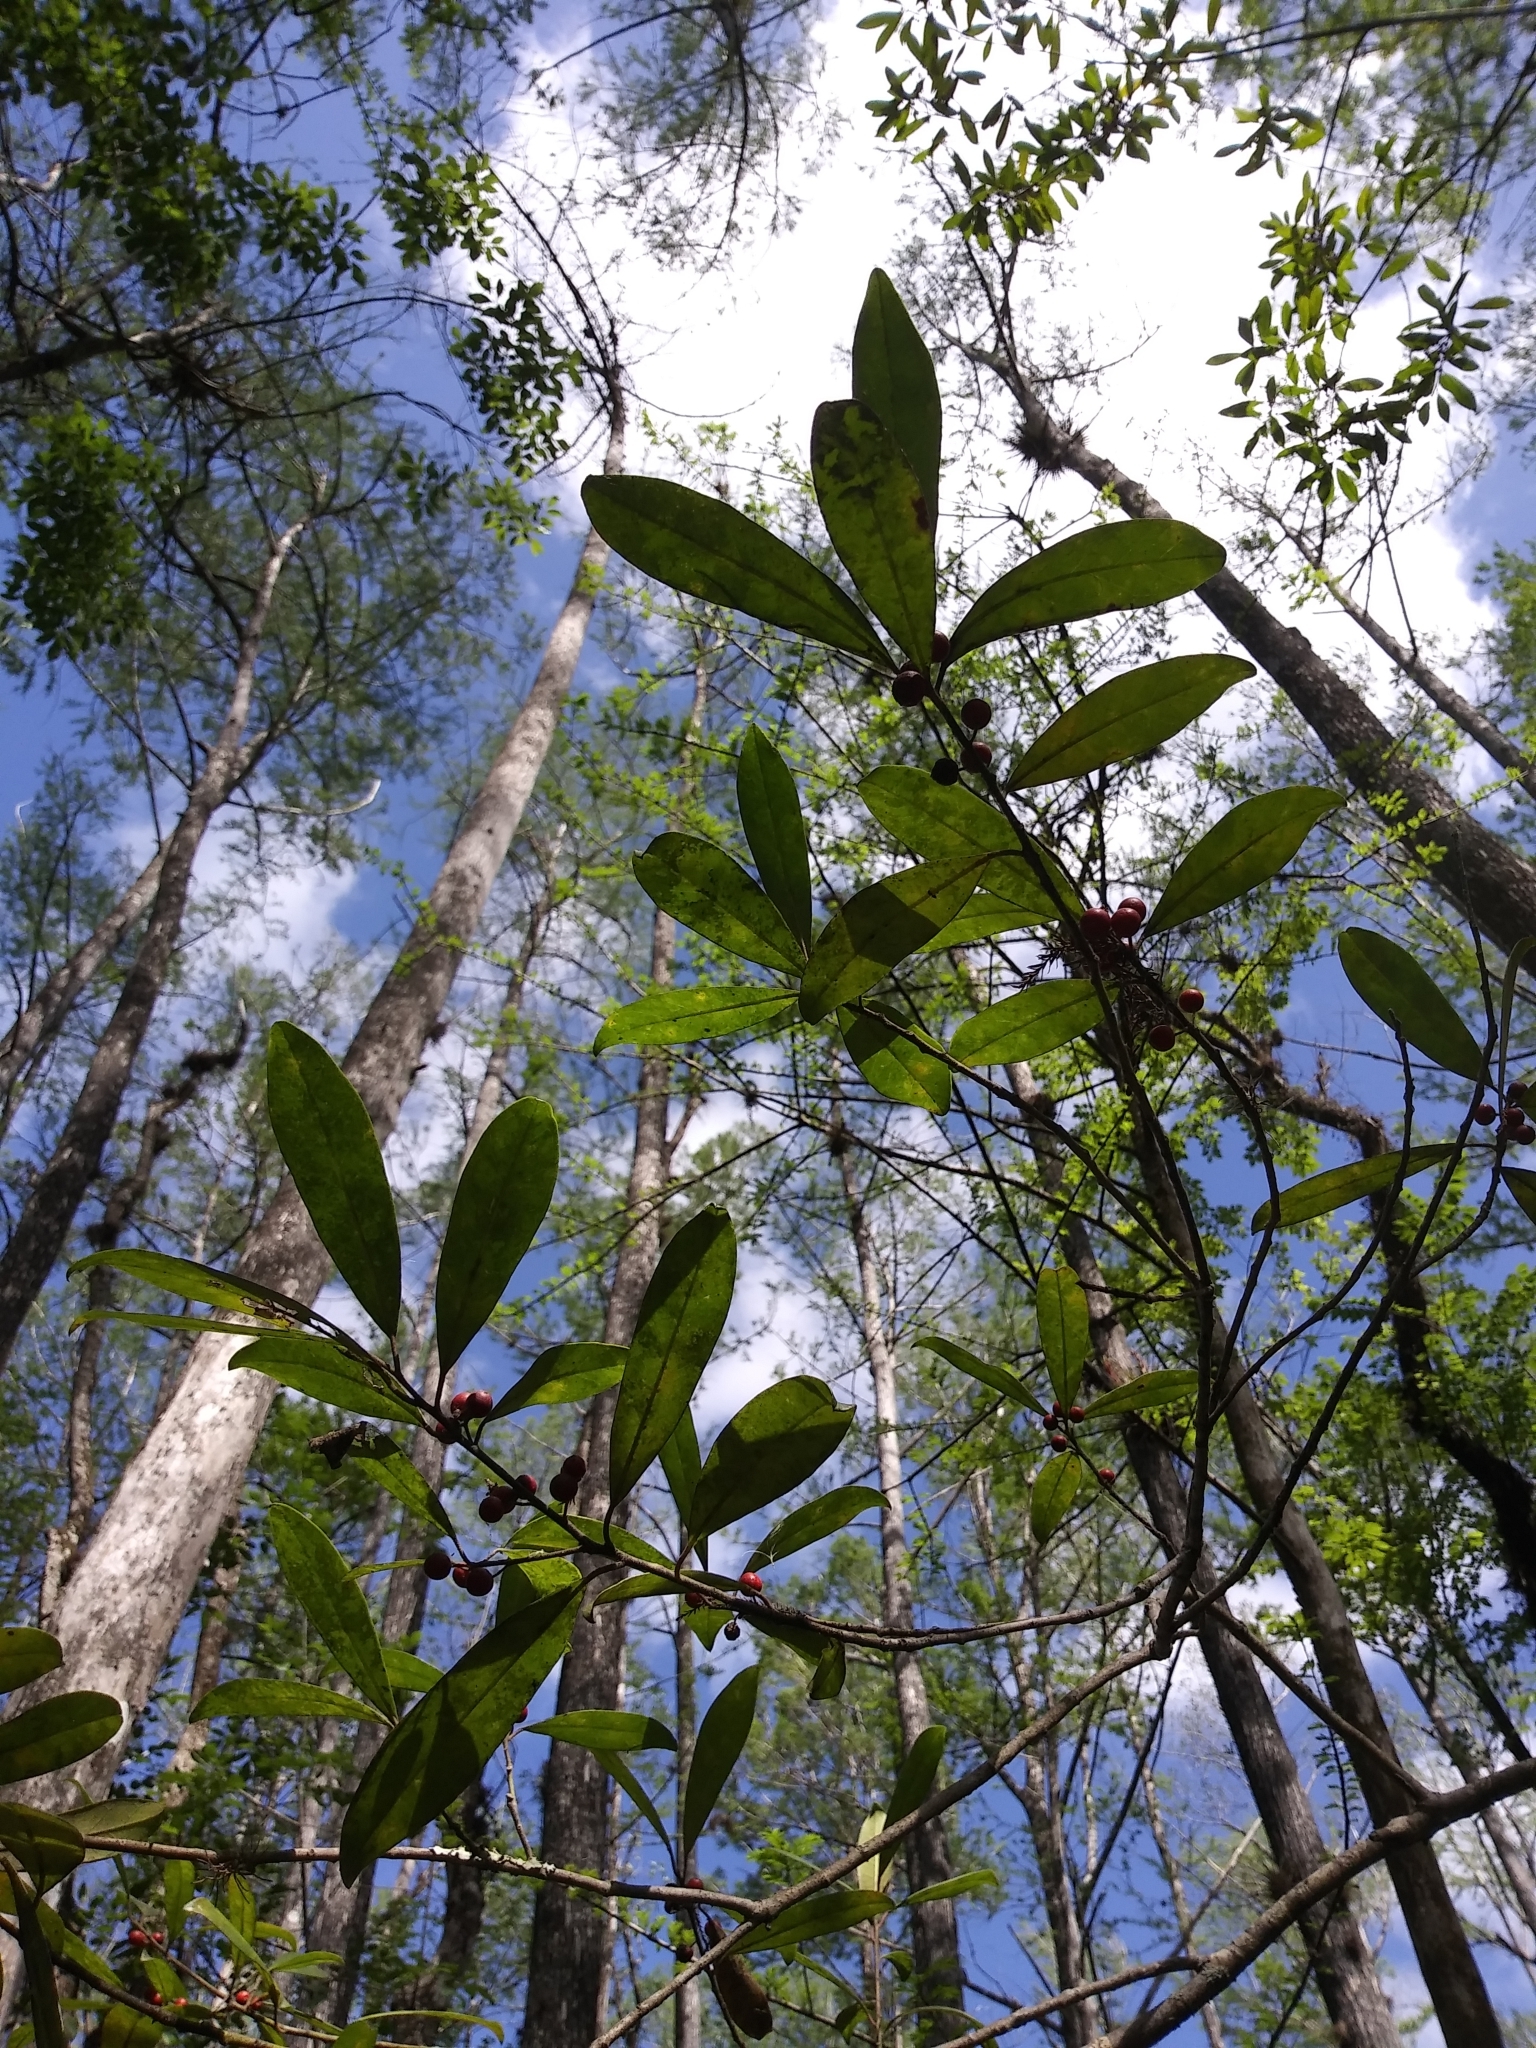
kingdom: Plantae
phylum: Tracheophyta
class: Magnoliopsida
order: Aquifoliales
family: Aquifoliaceae
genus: Ilex
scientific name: Ilex cassine
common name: Dahoon
